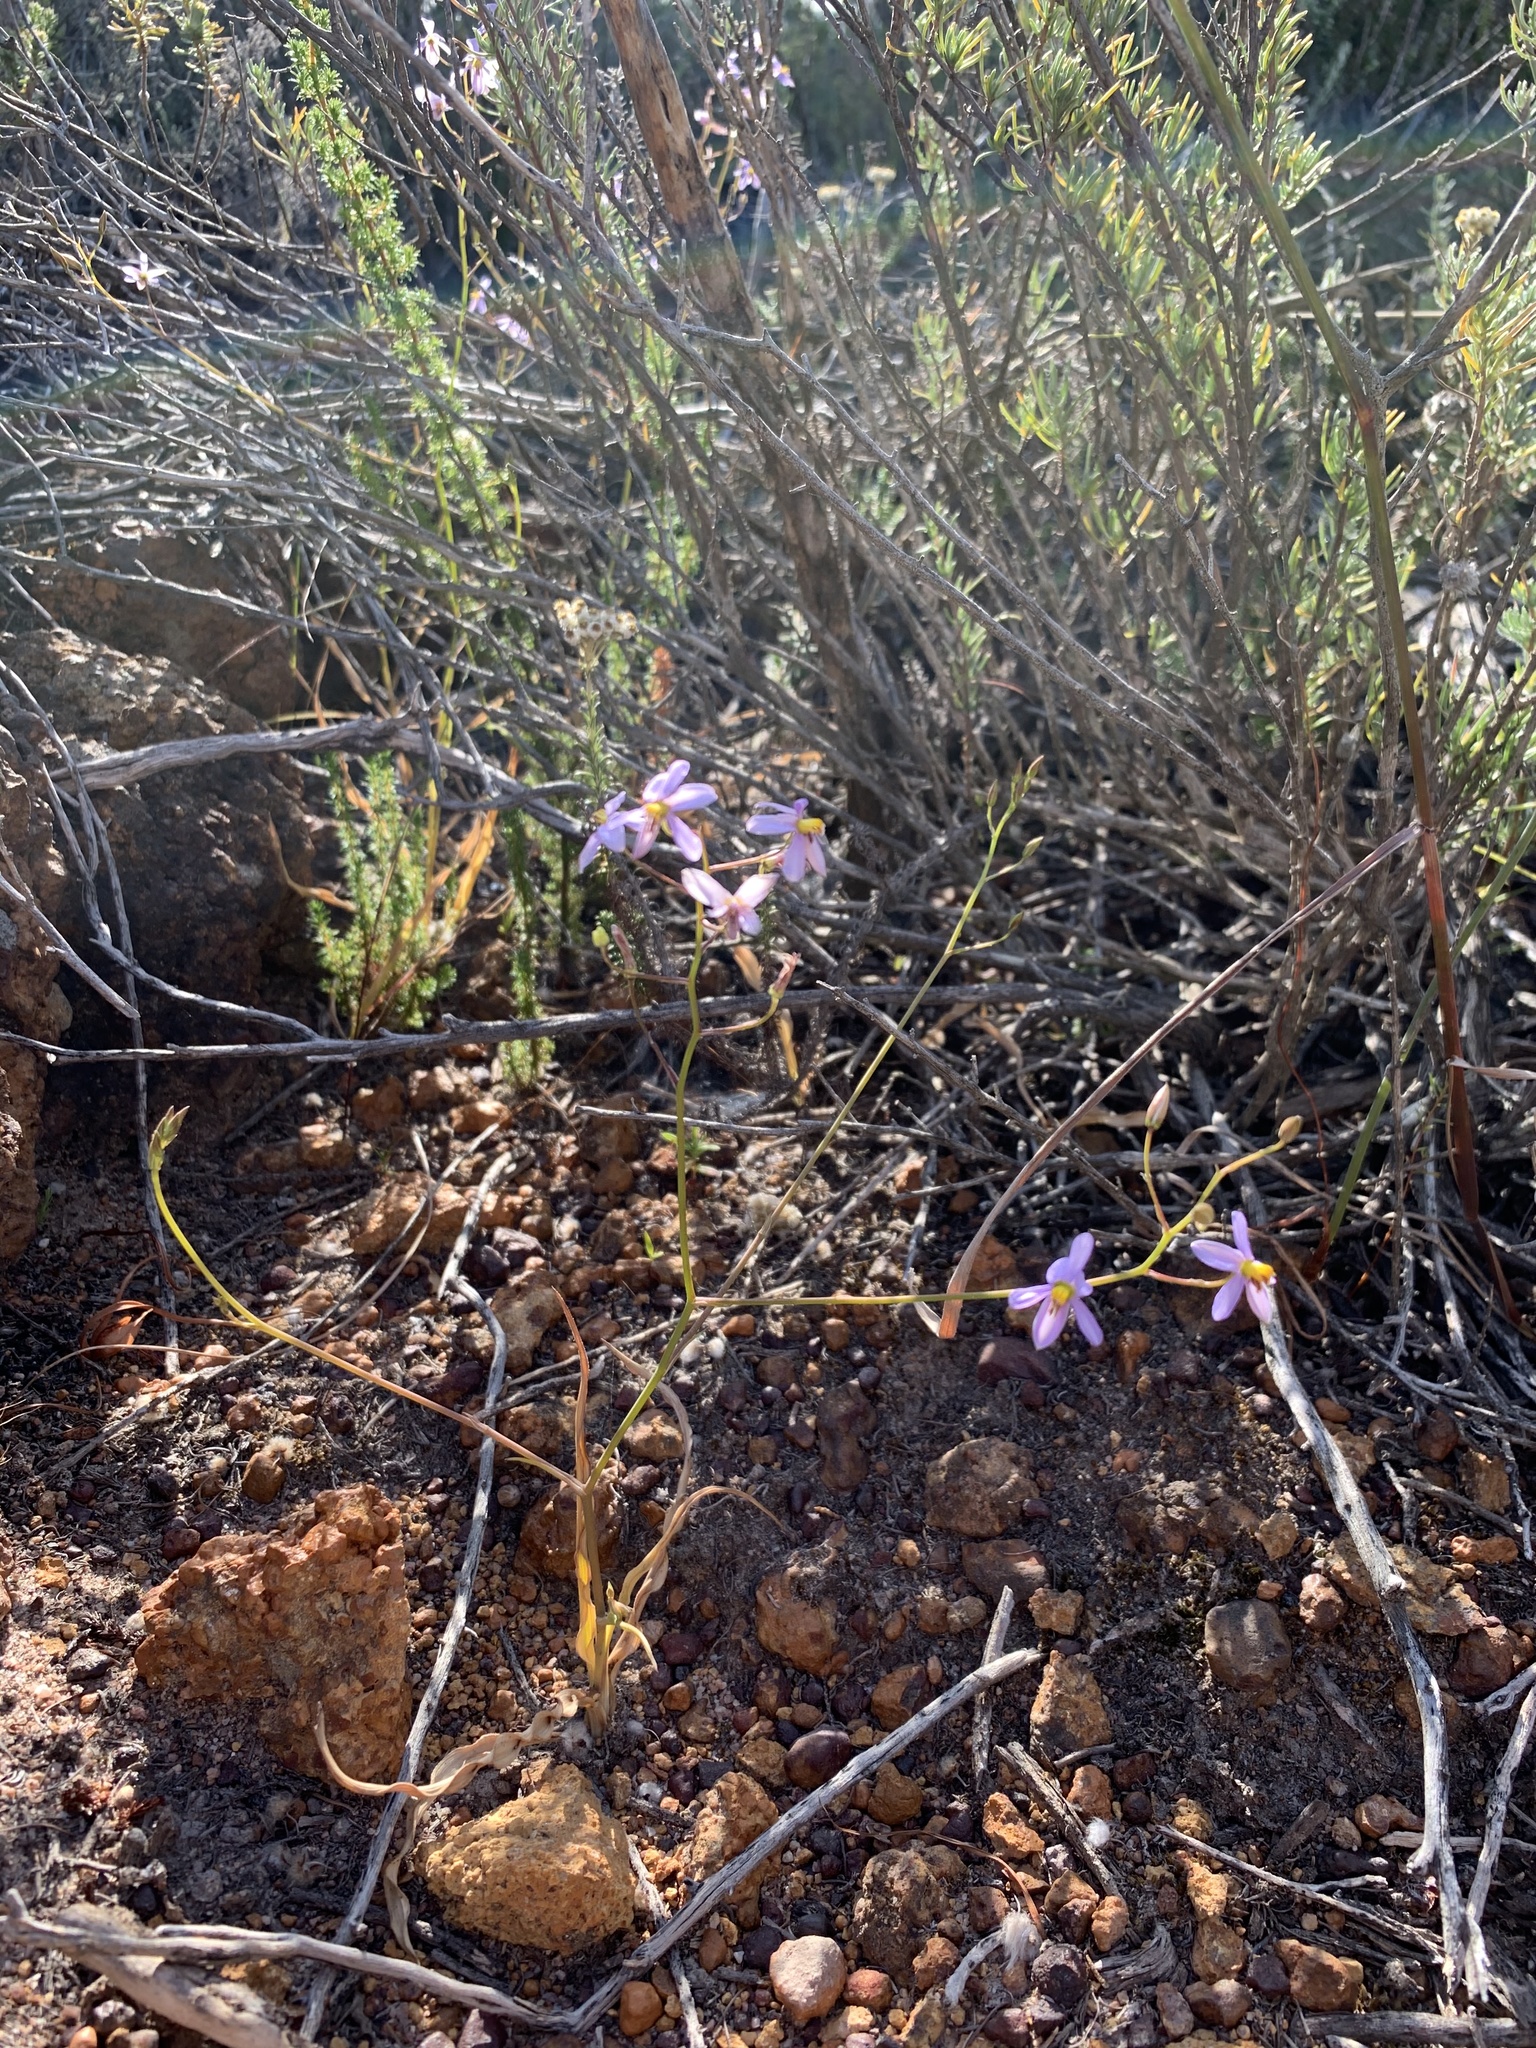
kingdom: Plantae
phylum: Tracheophyta
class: Liliopsida
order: Asparagales
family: Tecophilaeaceae
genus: Cyanella
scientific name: Cyanella hyacinthoides
